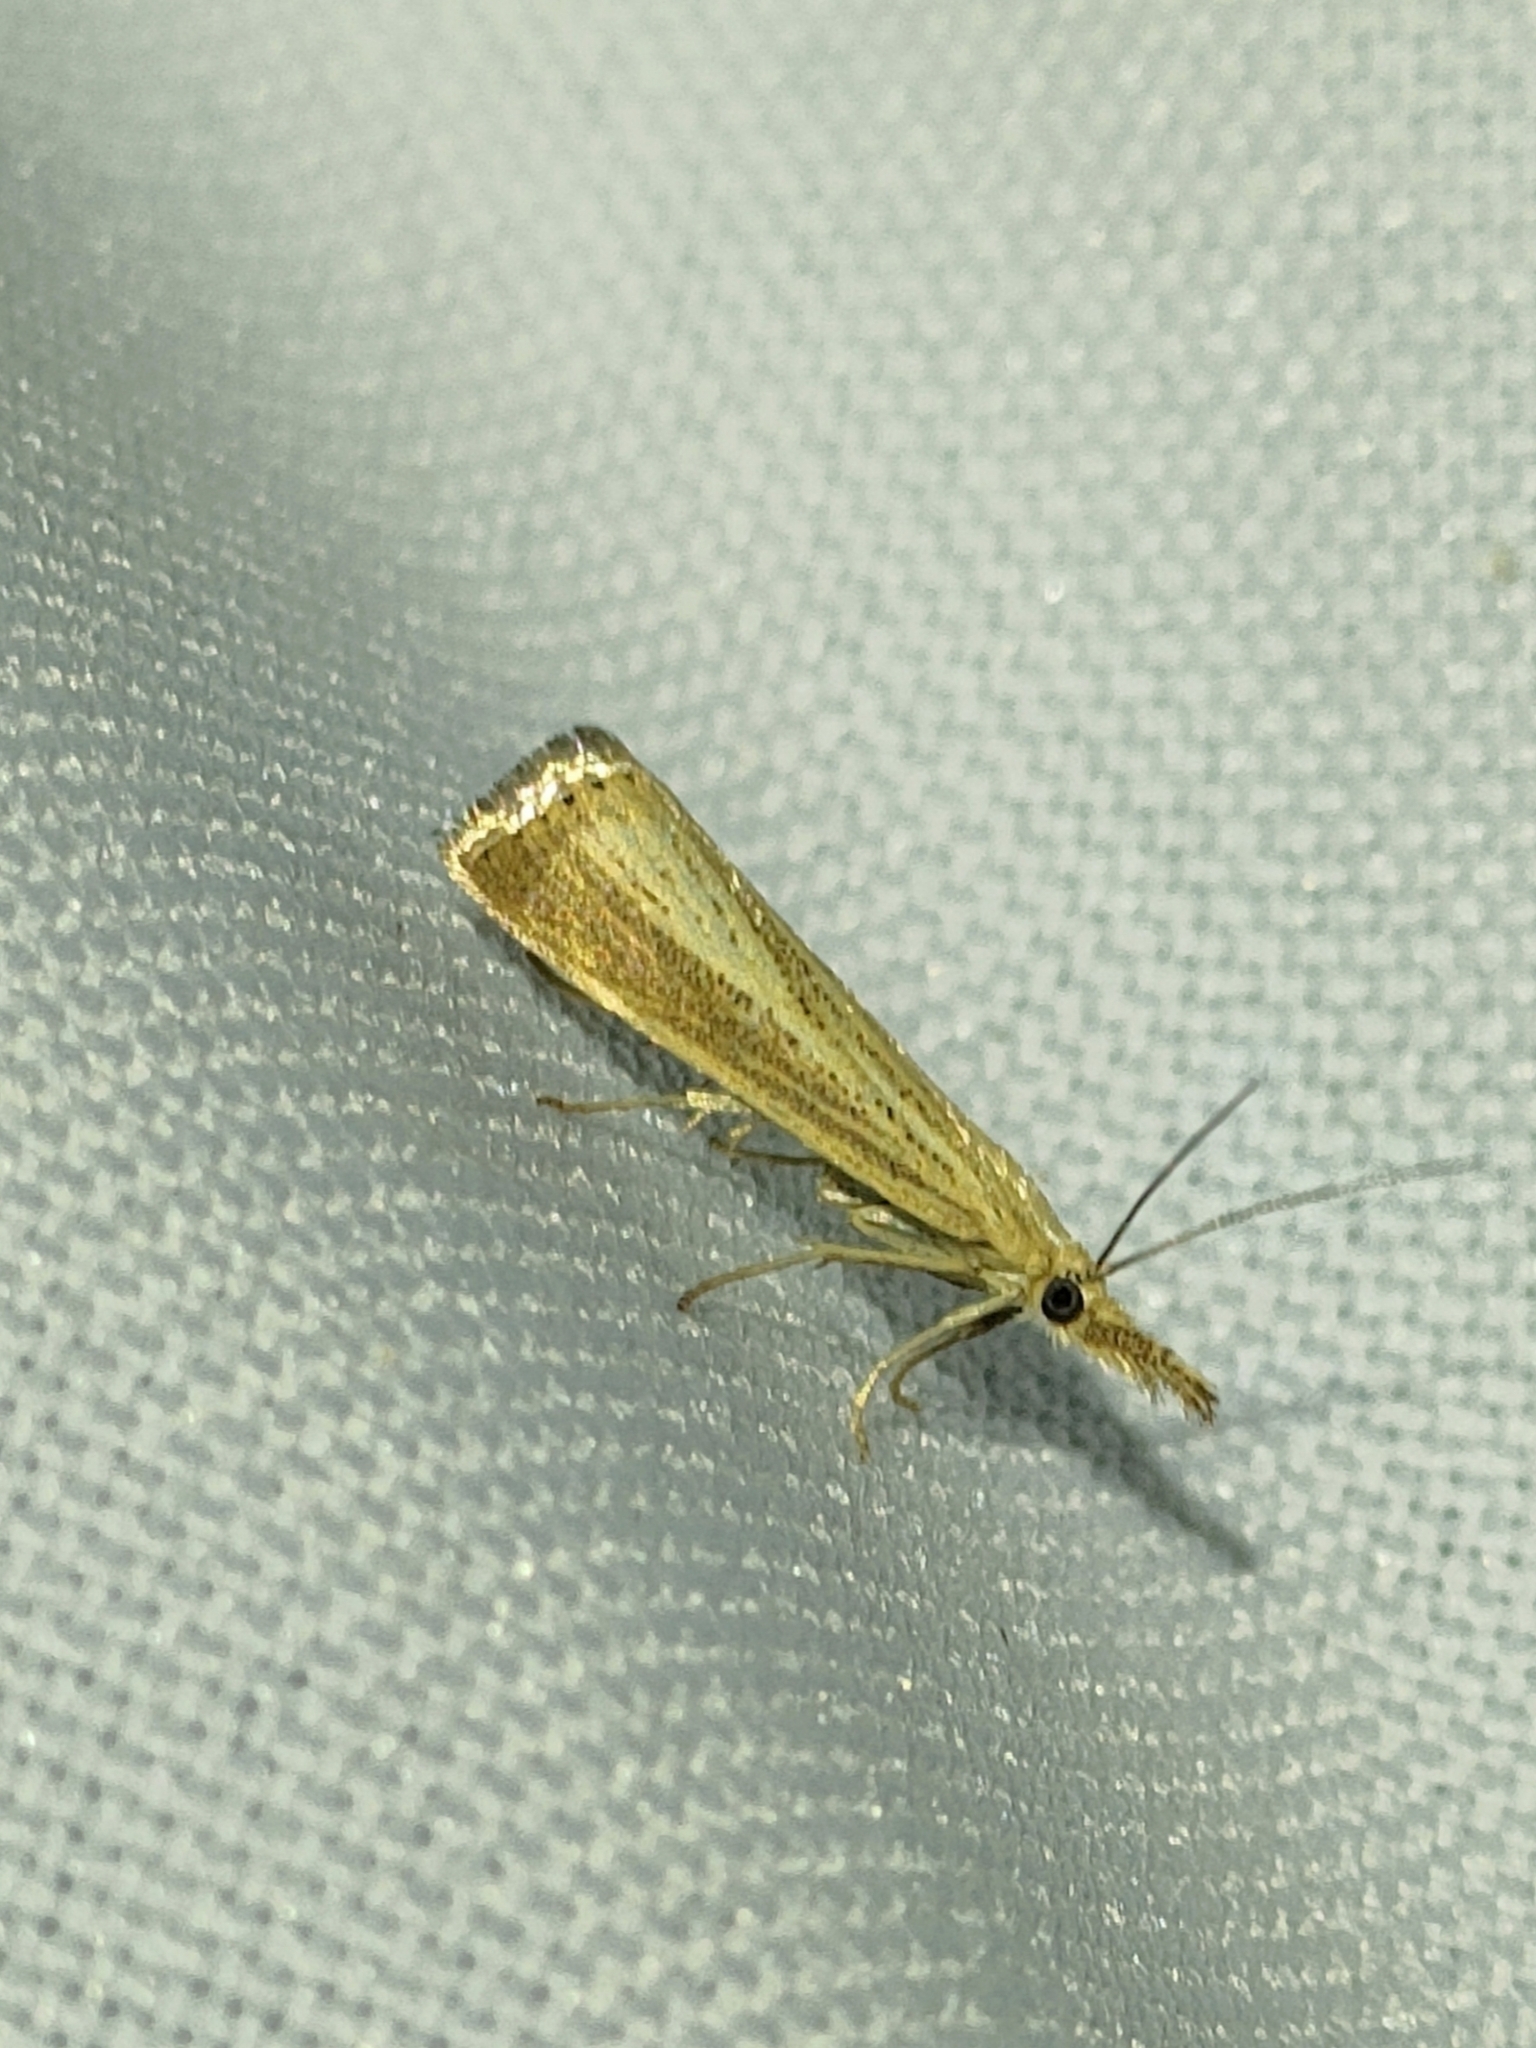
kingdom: Animalia
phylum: Arthropoda
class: Insecta
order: Lepidoptera
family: Crambidae
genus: Agriphila
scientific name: Agriphila straminella
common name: Straw grass-veneer
